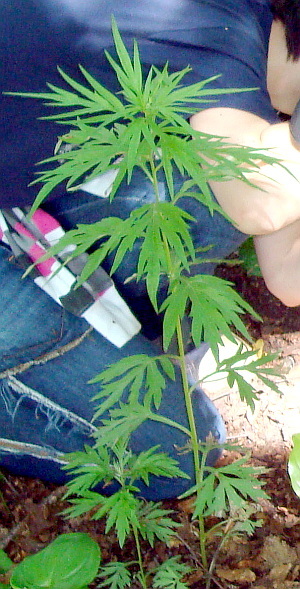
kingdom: Plantae
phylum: Tracheophyta
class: Magnoliopsida
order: Asterales
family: Asteraceae
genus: Artemisia
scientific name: Artemisia vulgaris
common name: Mugwort
